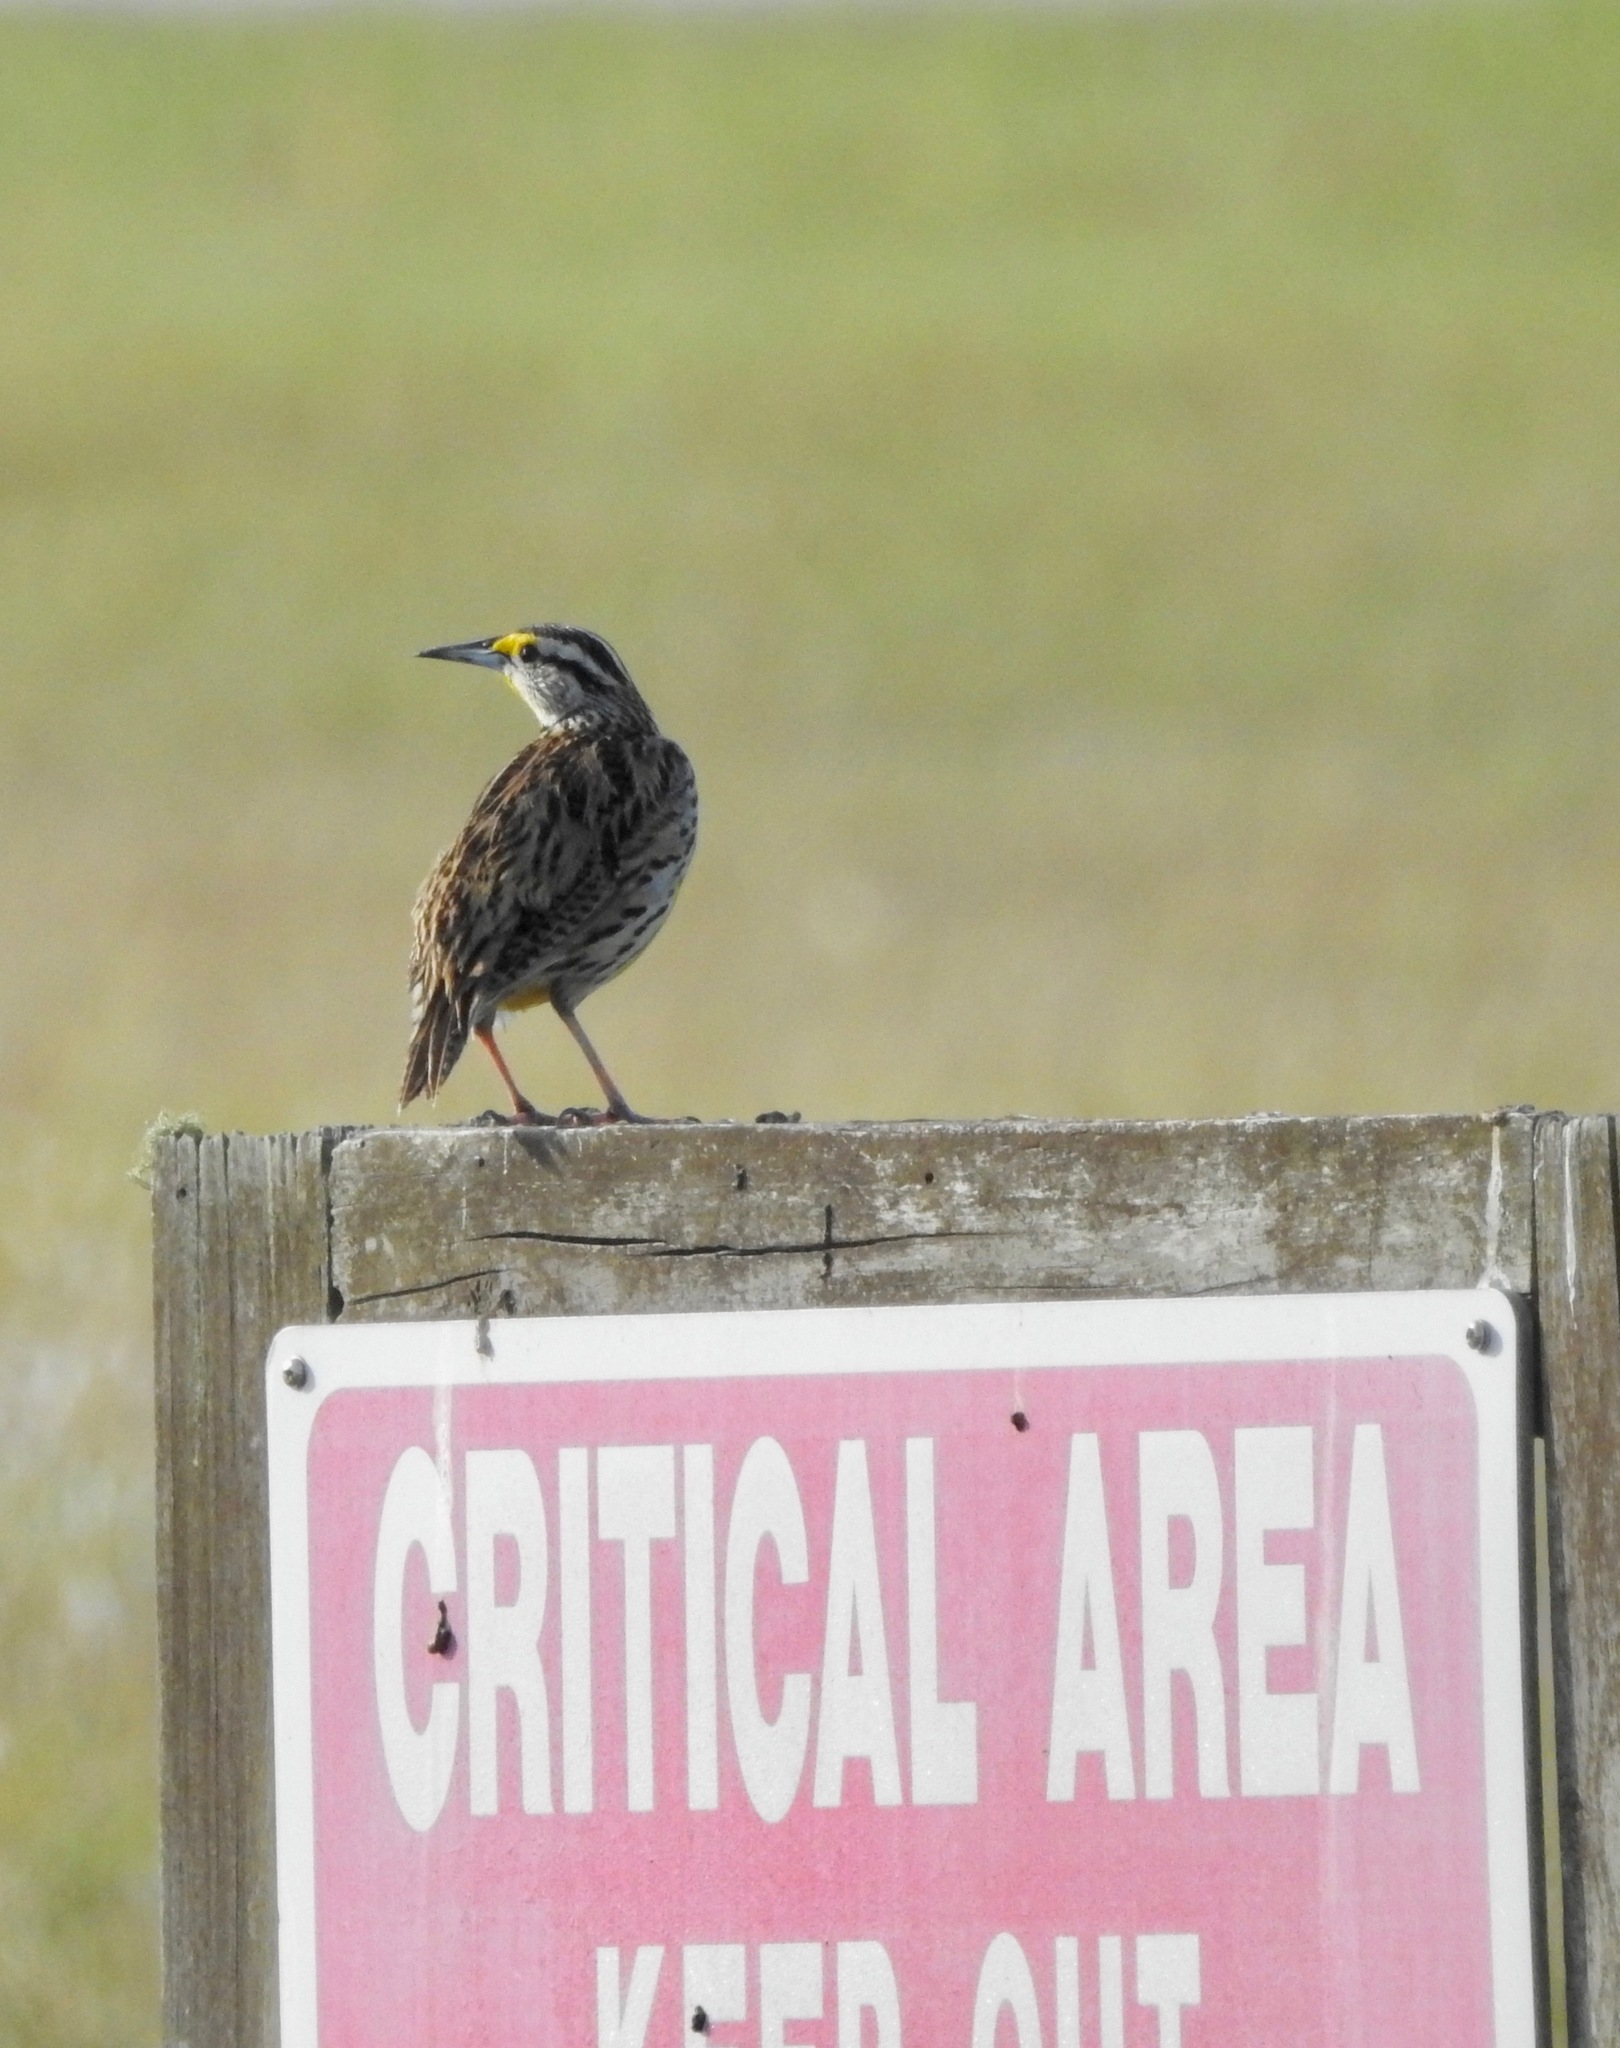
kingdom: Animalia
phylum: Chordata
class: Aves
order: Passeriformes
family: Icteridae
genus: Sturnella
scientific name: Sturnella magna
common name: Eastern meadowlark
